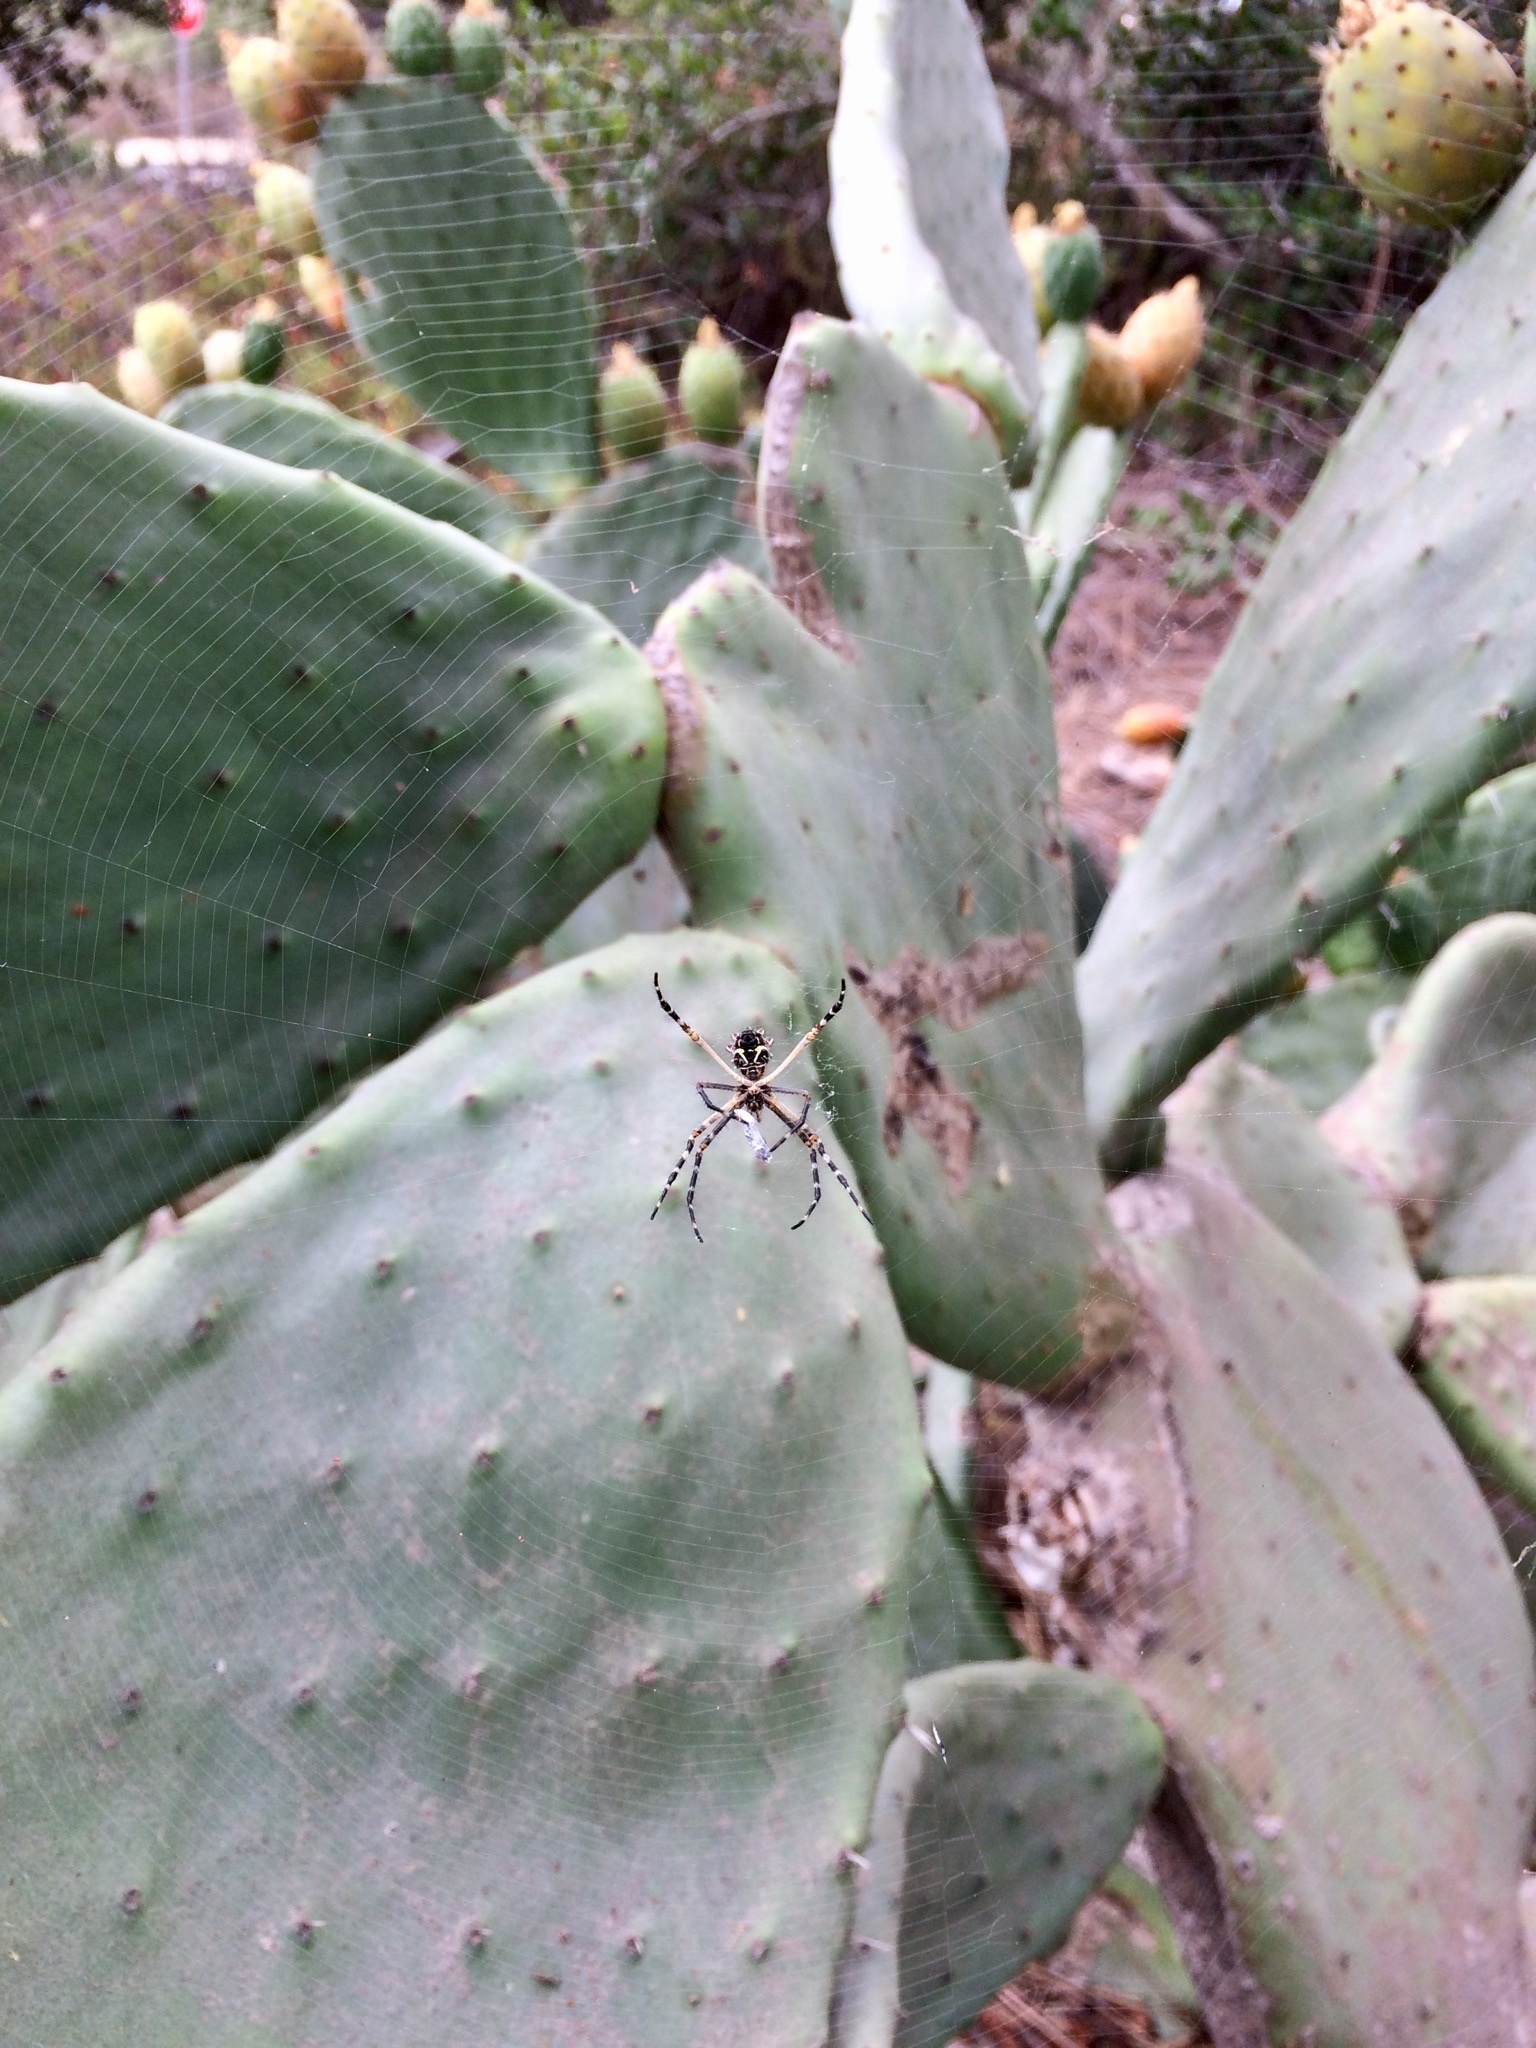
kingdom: Animalia
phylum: Arthropoda
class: Arachnida
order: Araneae
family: Araneidae
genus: Argiope
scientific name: Argiope argentata
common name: Orb weavers
